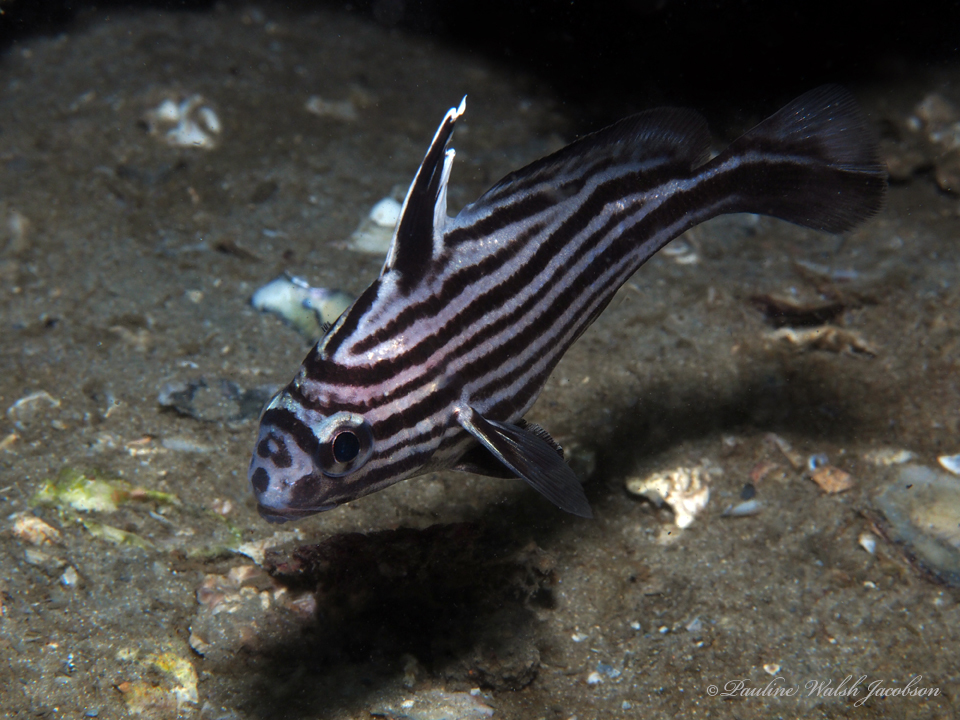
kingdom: Animalia
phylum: Chordata
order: Perciformes
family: Sciaenidae
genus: Pareques
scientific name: Pareques acuminatus
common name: High-hat
